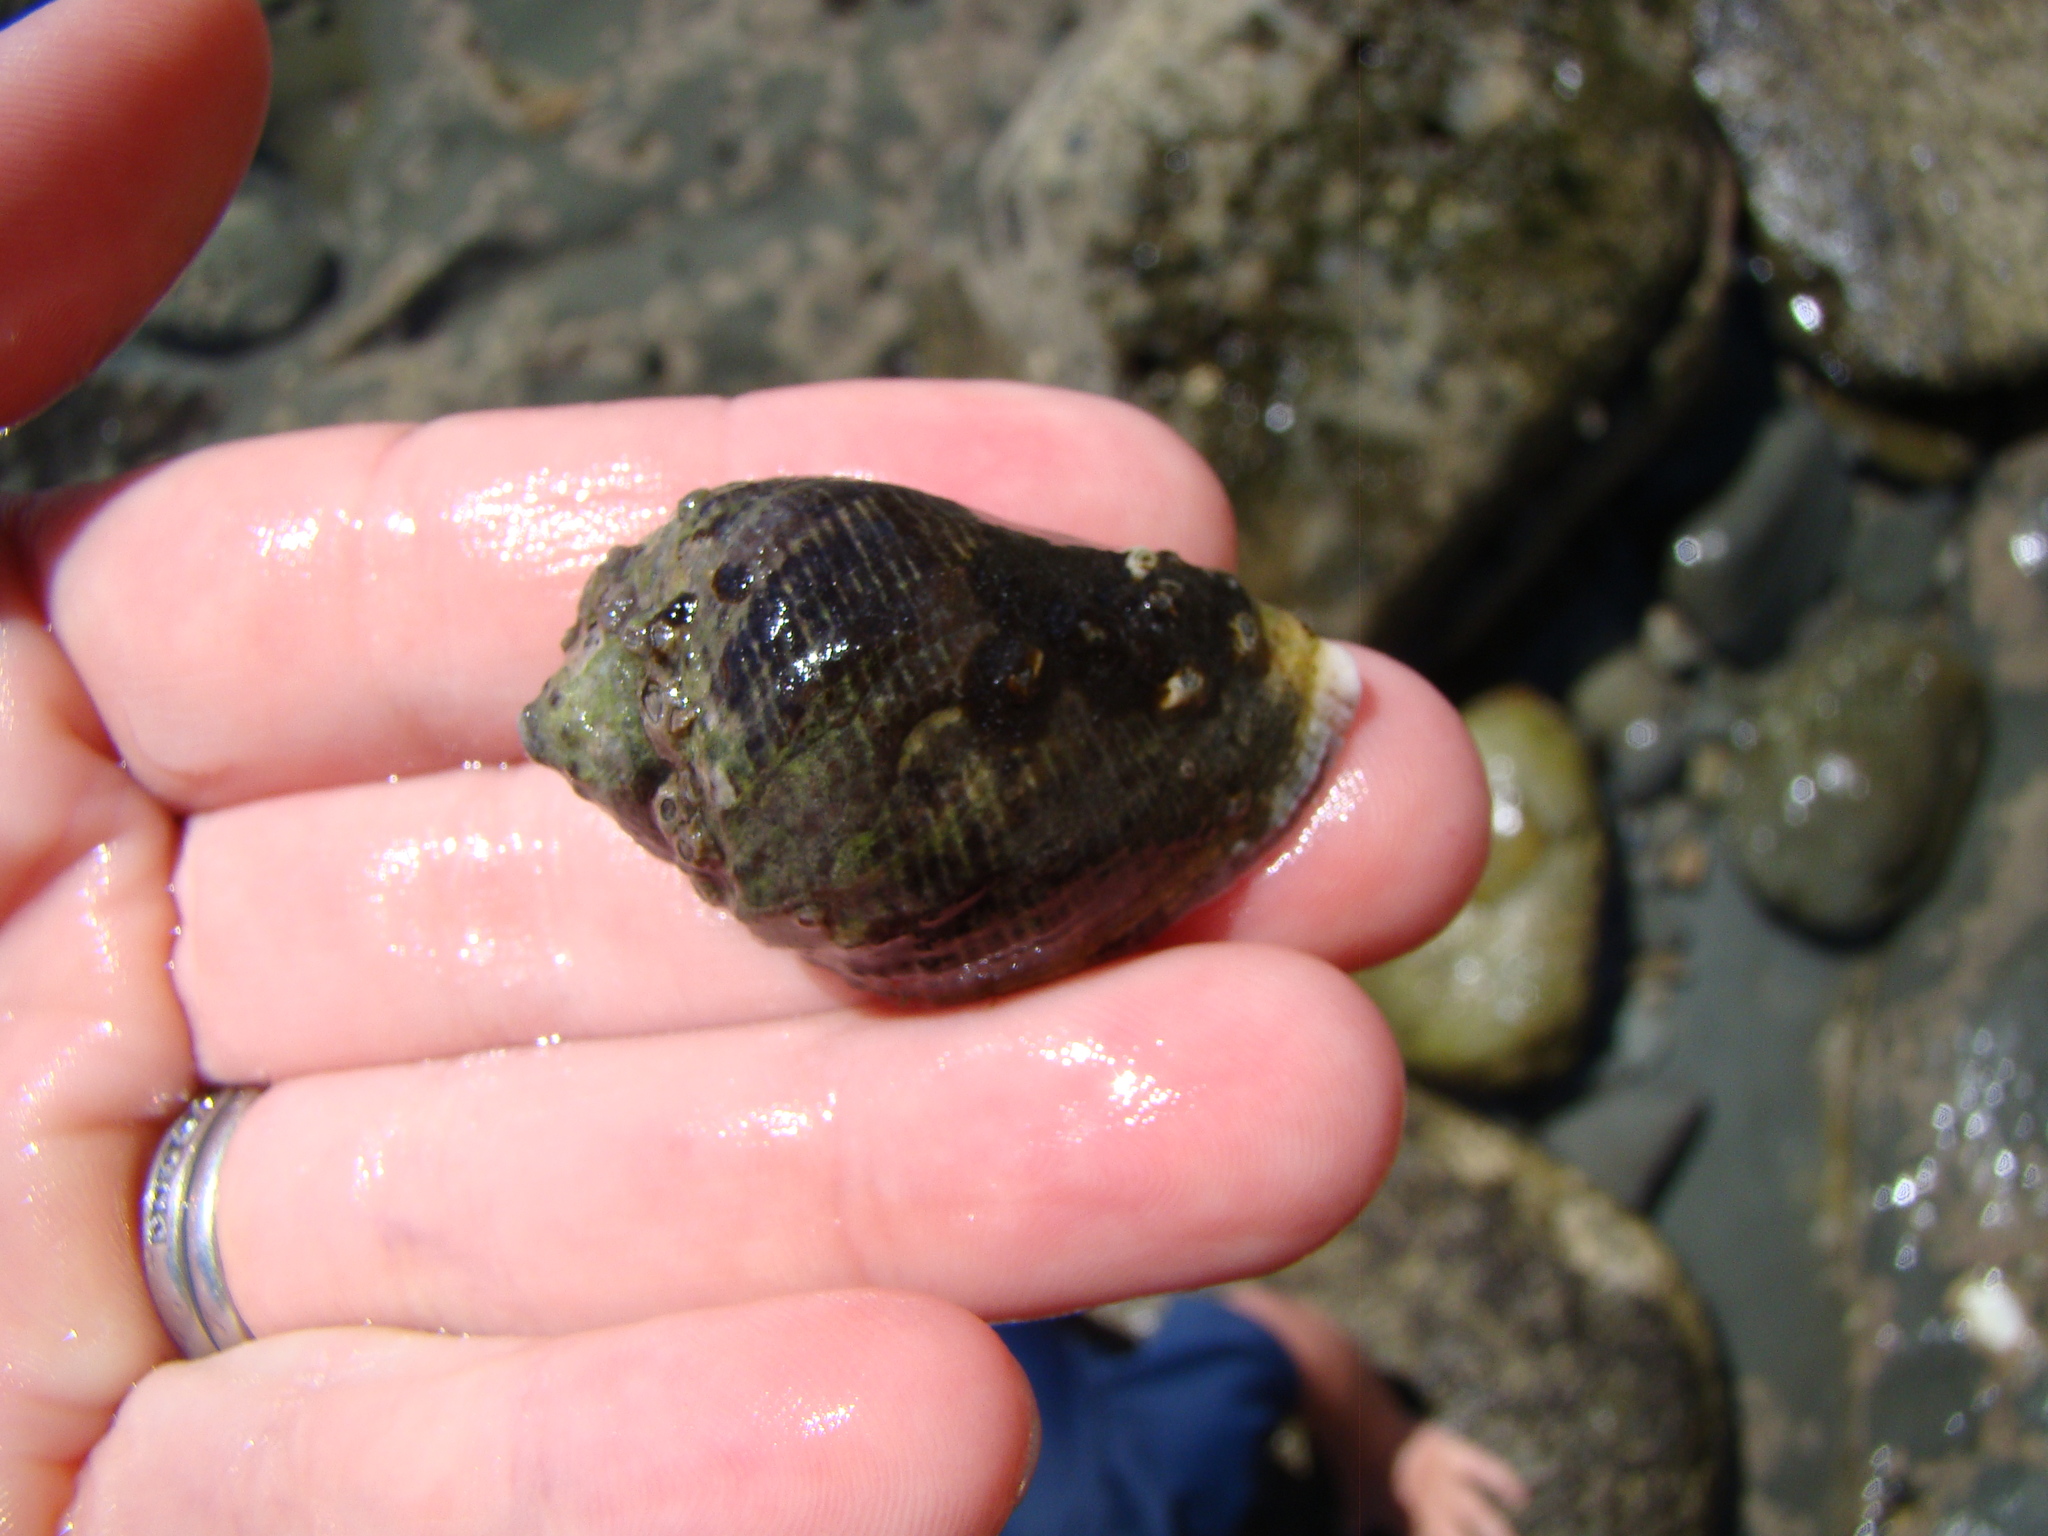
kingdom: Animalia
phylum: Mollusca
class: Gastropoda
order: Neogastropoda
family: Muricidae
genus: Haustrum
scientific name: Haustrum haustorium
